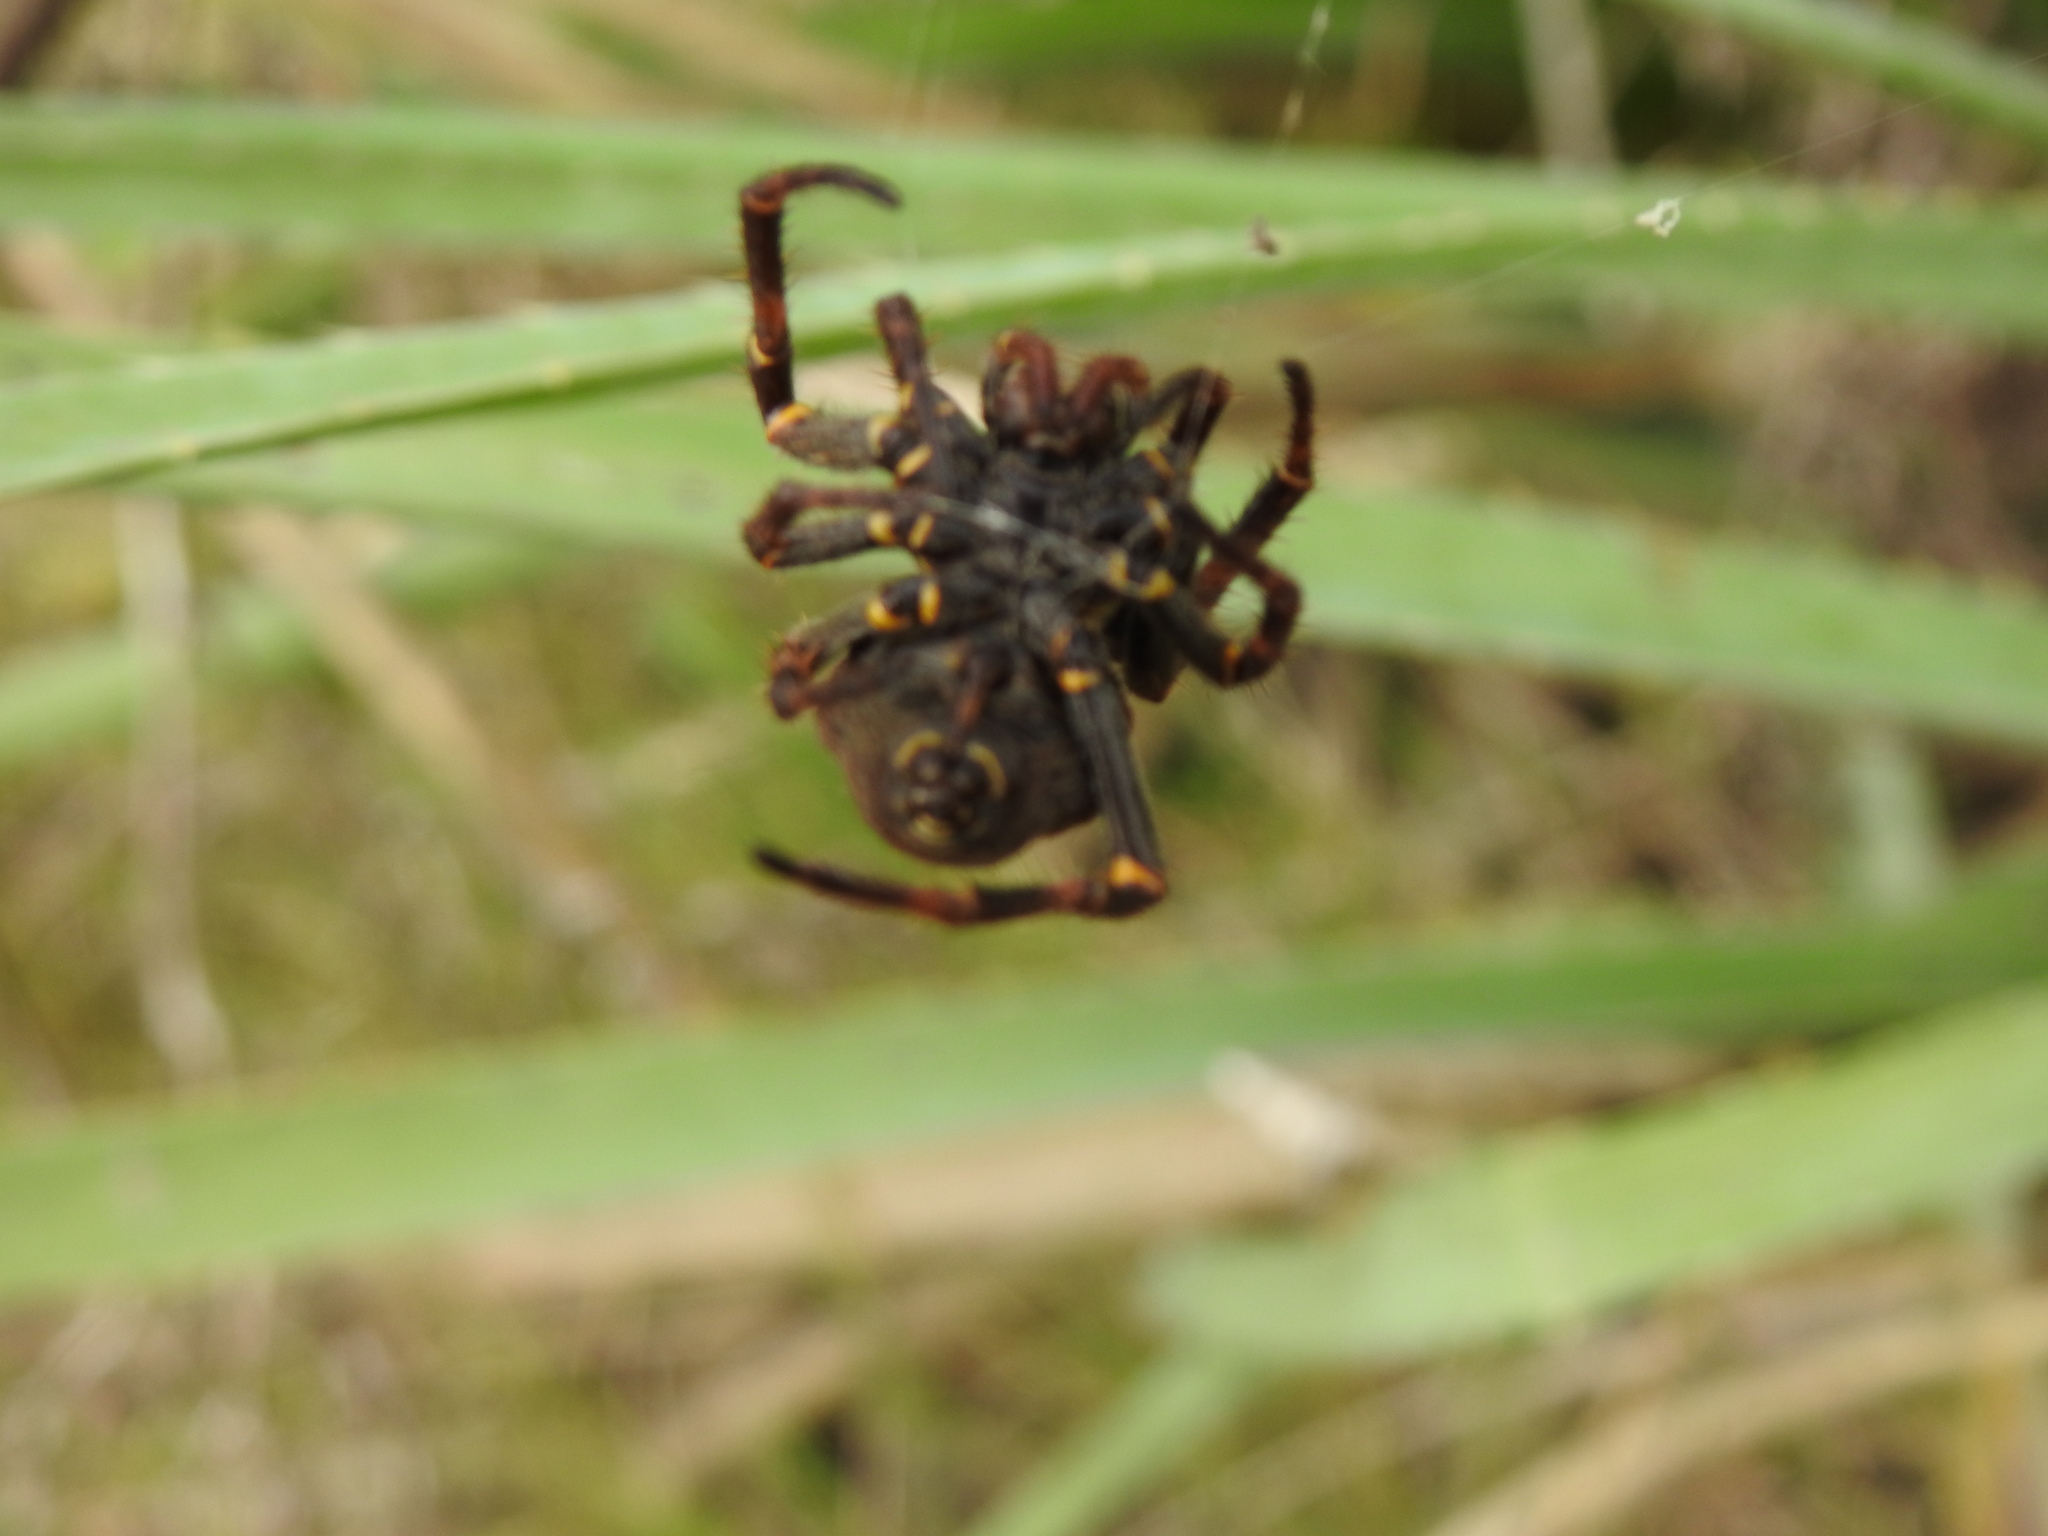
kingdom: Animalia
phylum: Arthropoda
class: Arachnida
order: Araneae
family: Araneidae
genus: Parawixia
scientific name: Parawixia bistriata
